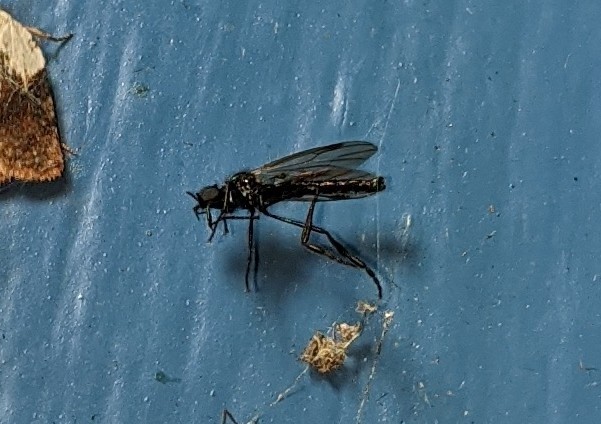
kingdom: Animalia
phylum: Arthropoda
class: Insecta
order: Diptera
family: Bibionidae
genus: Bibio
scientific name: Bibio slossonae
